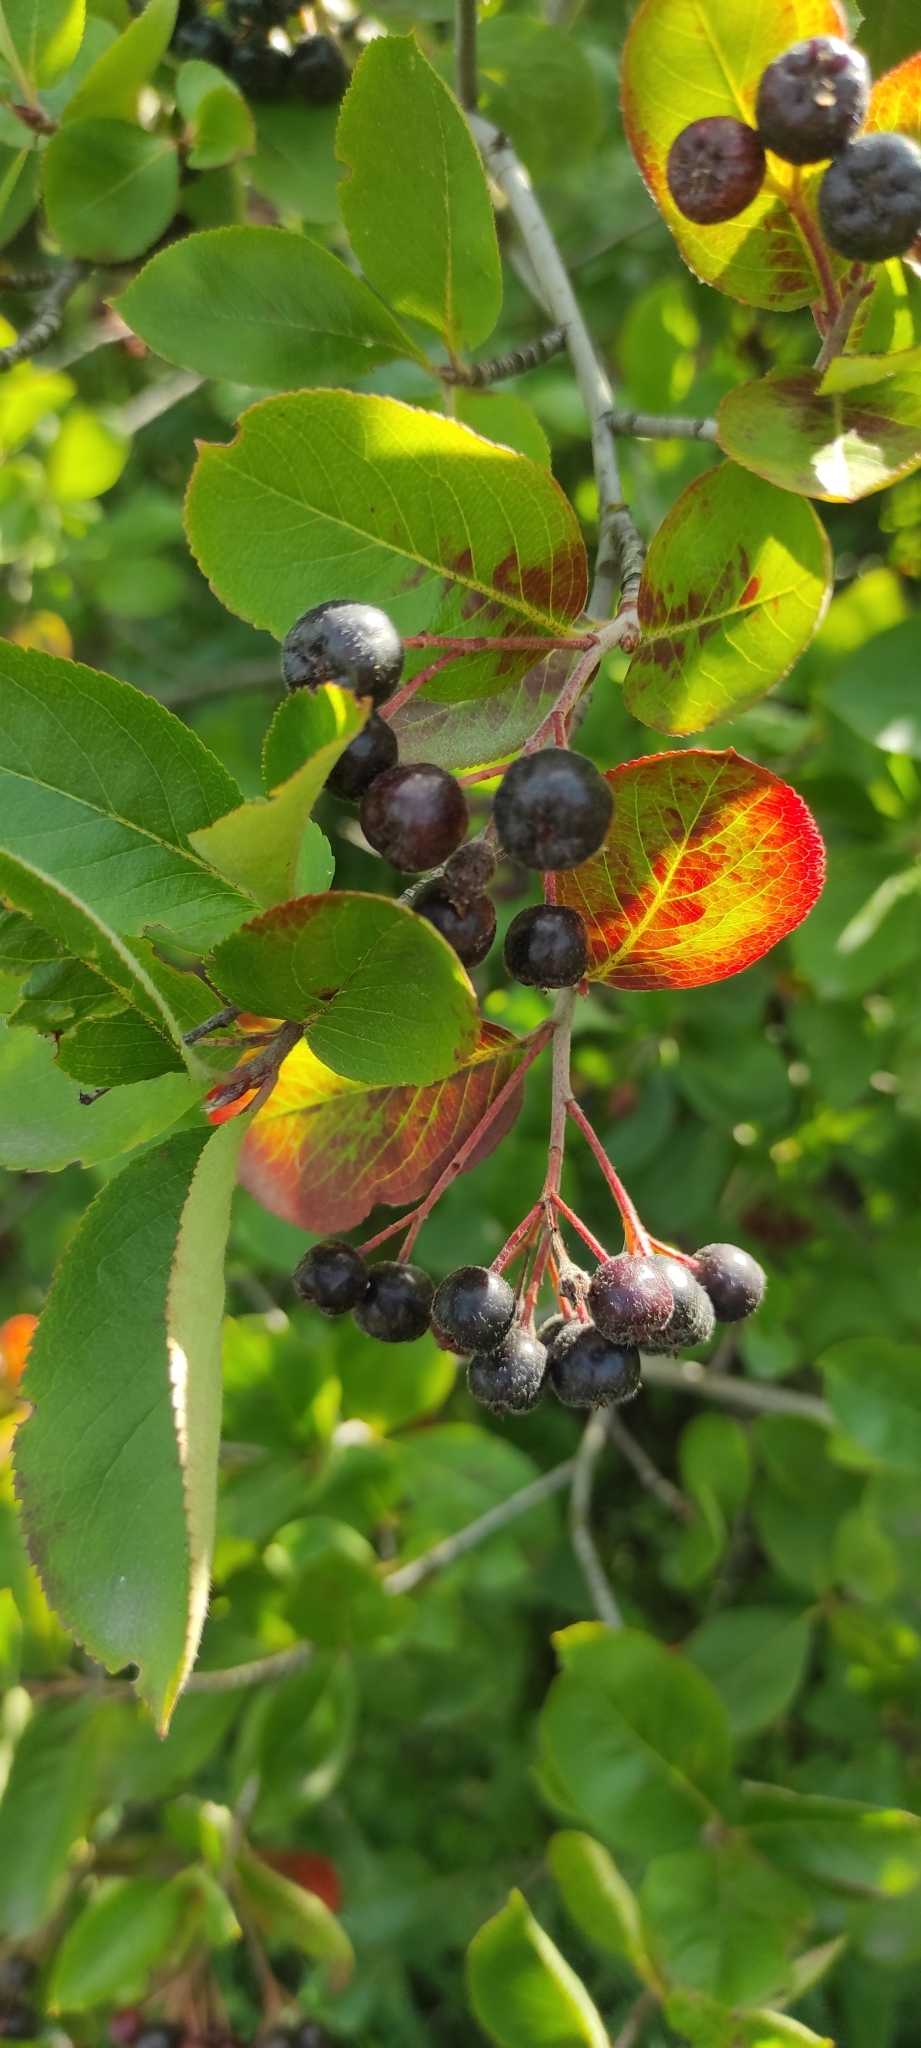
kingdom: Plantae
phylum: Tracheophyta
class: Magnoliopsida
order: Rosales
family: Rosaceae
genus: Sorbaronia
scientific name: Sorbaronia arsenii
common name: Arsène's mountain-ash
